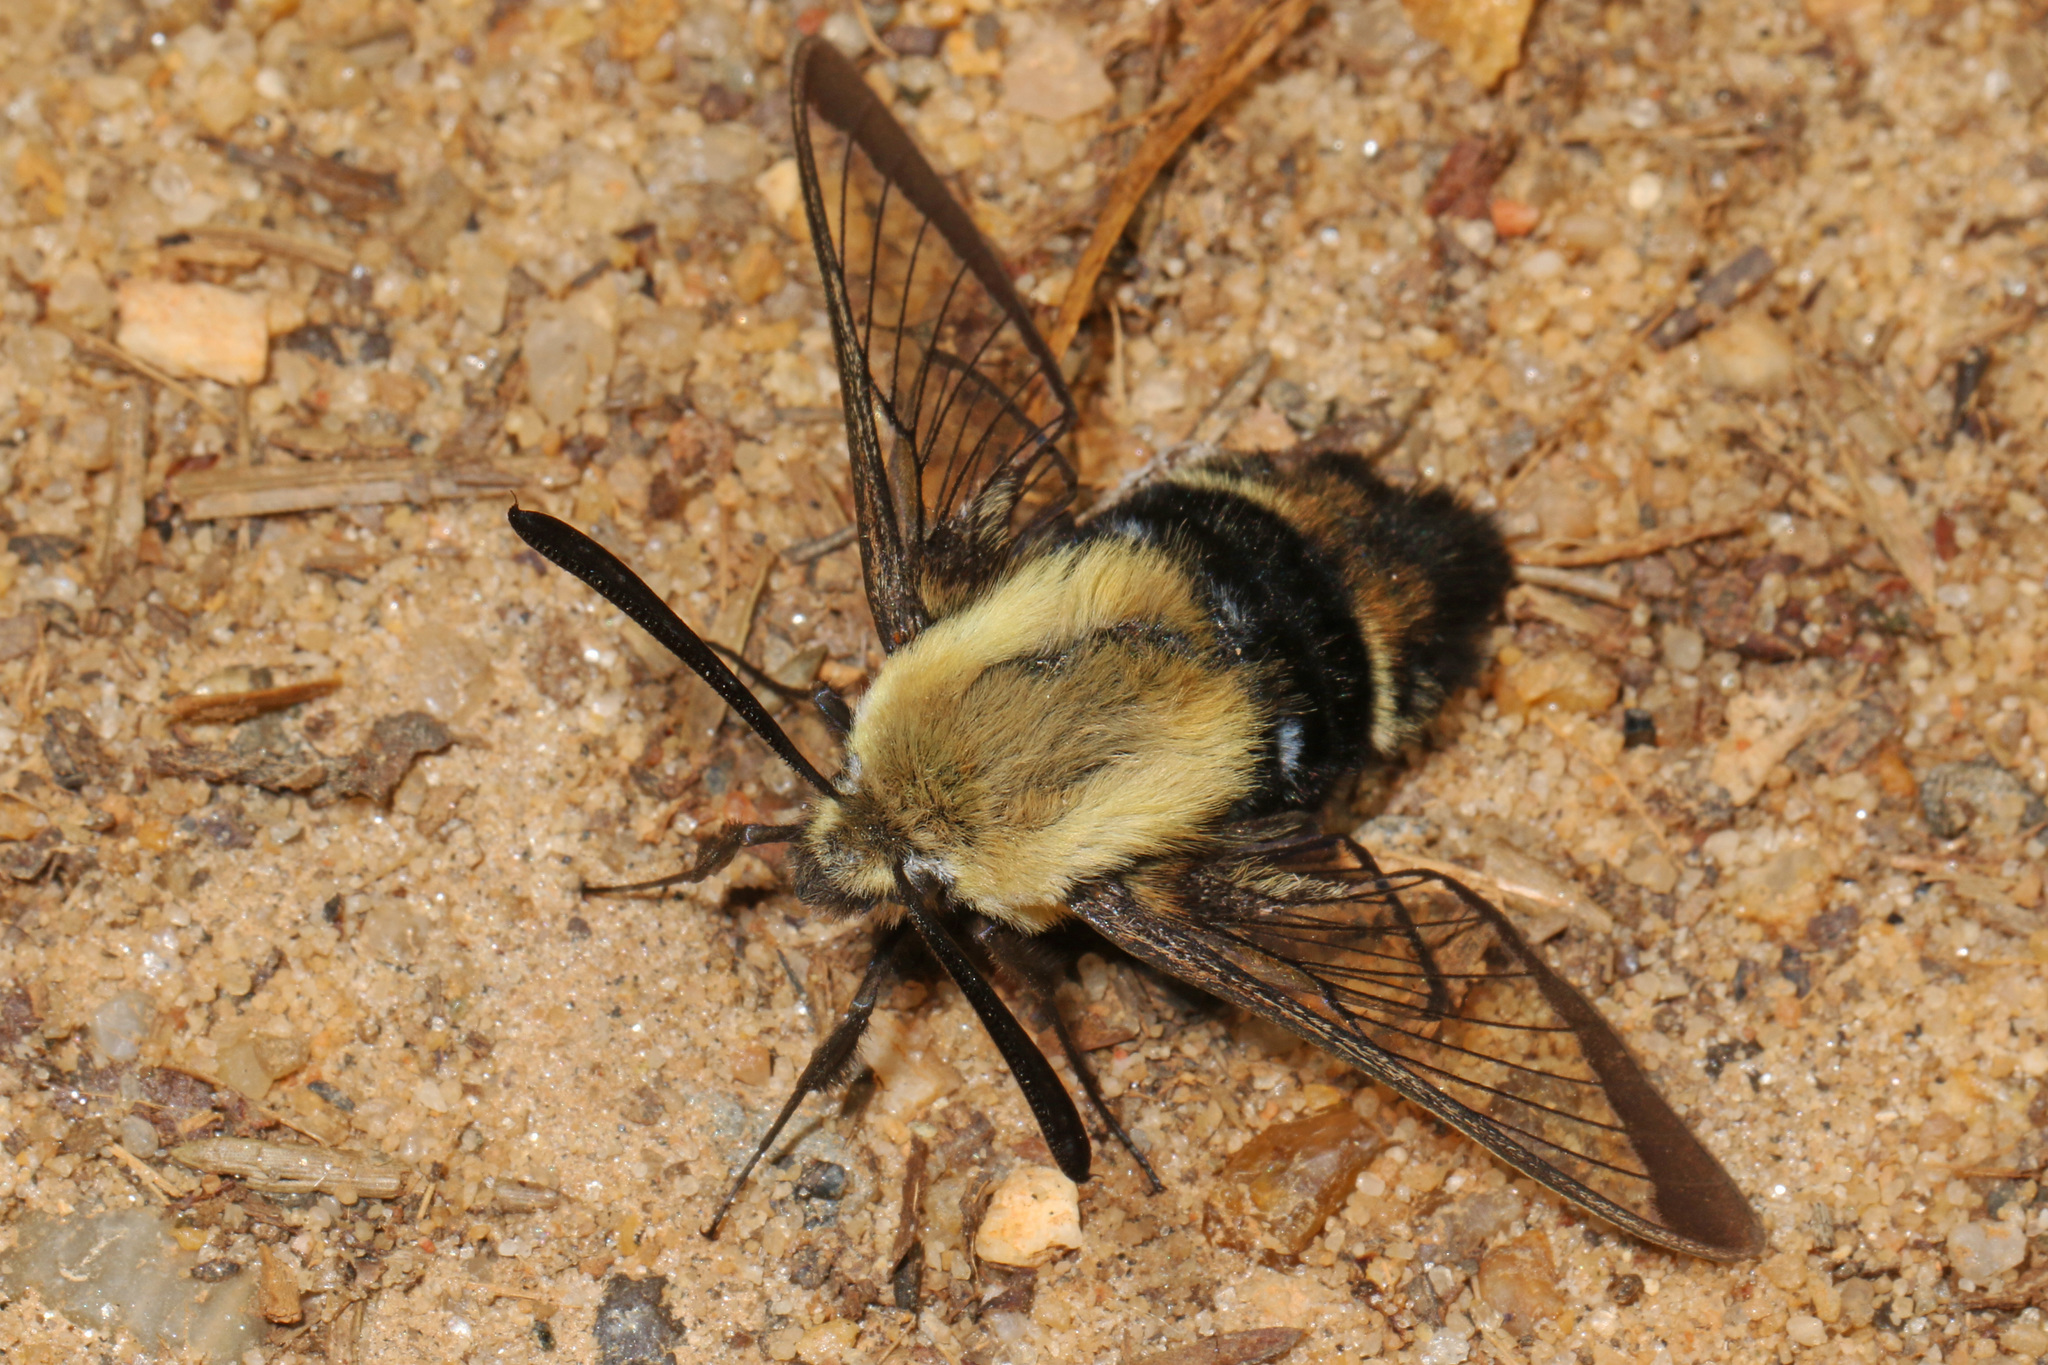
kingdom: Animalia
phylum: Arthropoda
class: Insecta
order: Lepidoptera
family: Sphingidae
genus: Hemaris
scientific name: Hemaris diffinis
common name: Bumblebee moth
